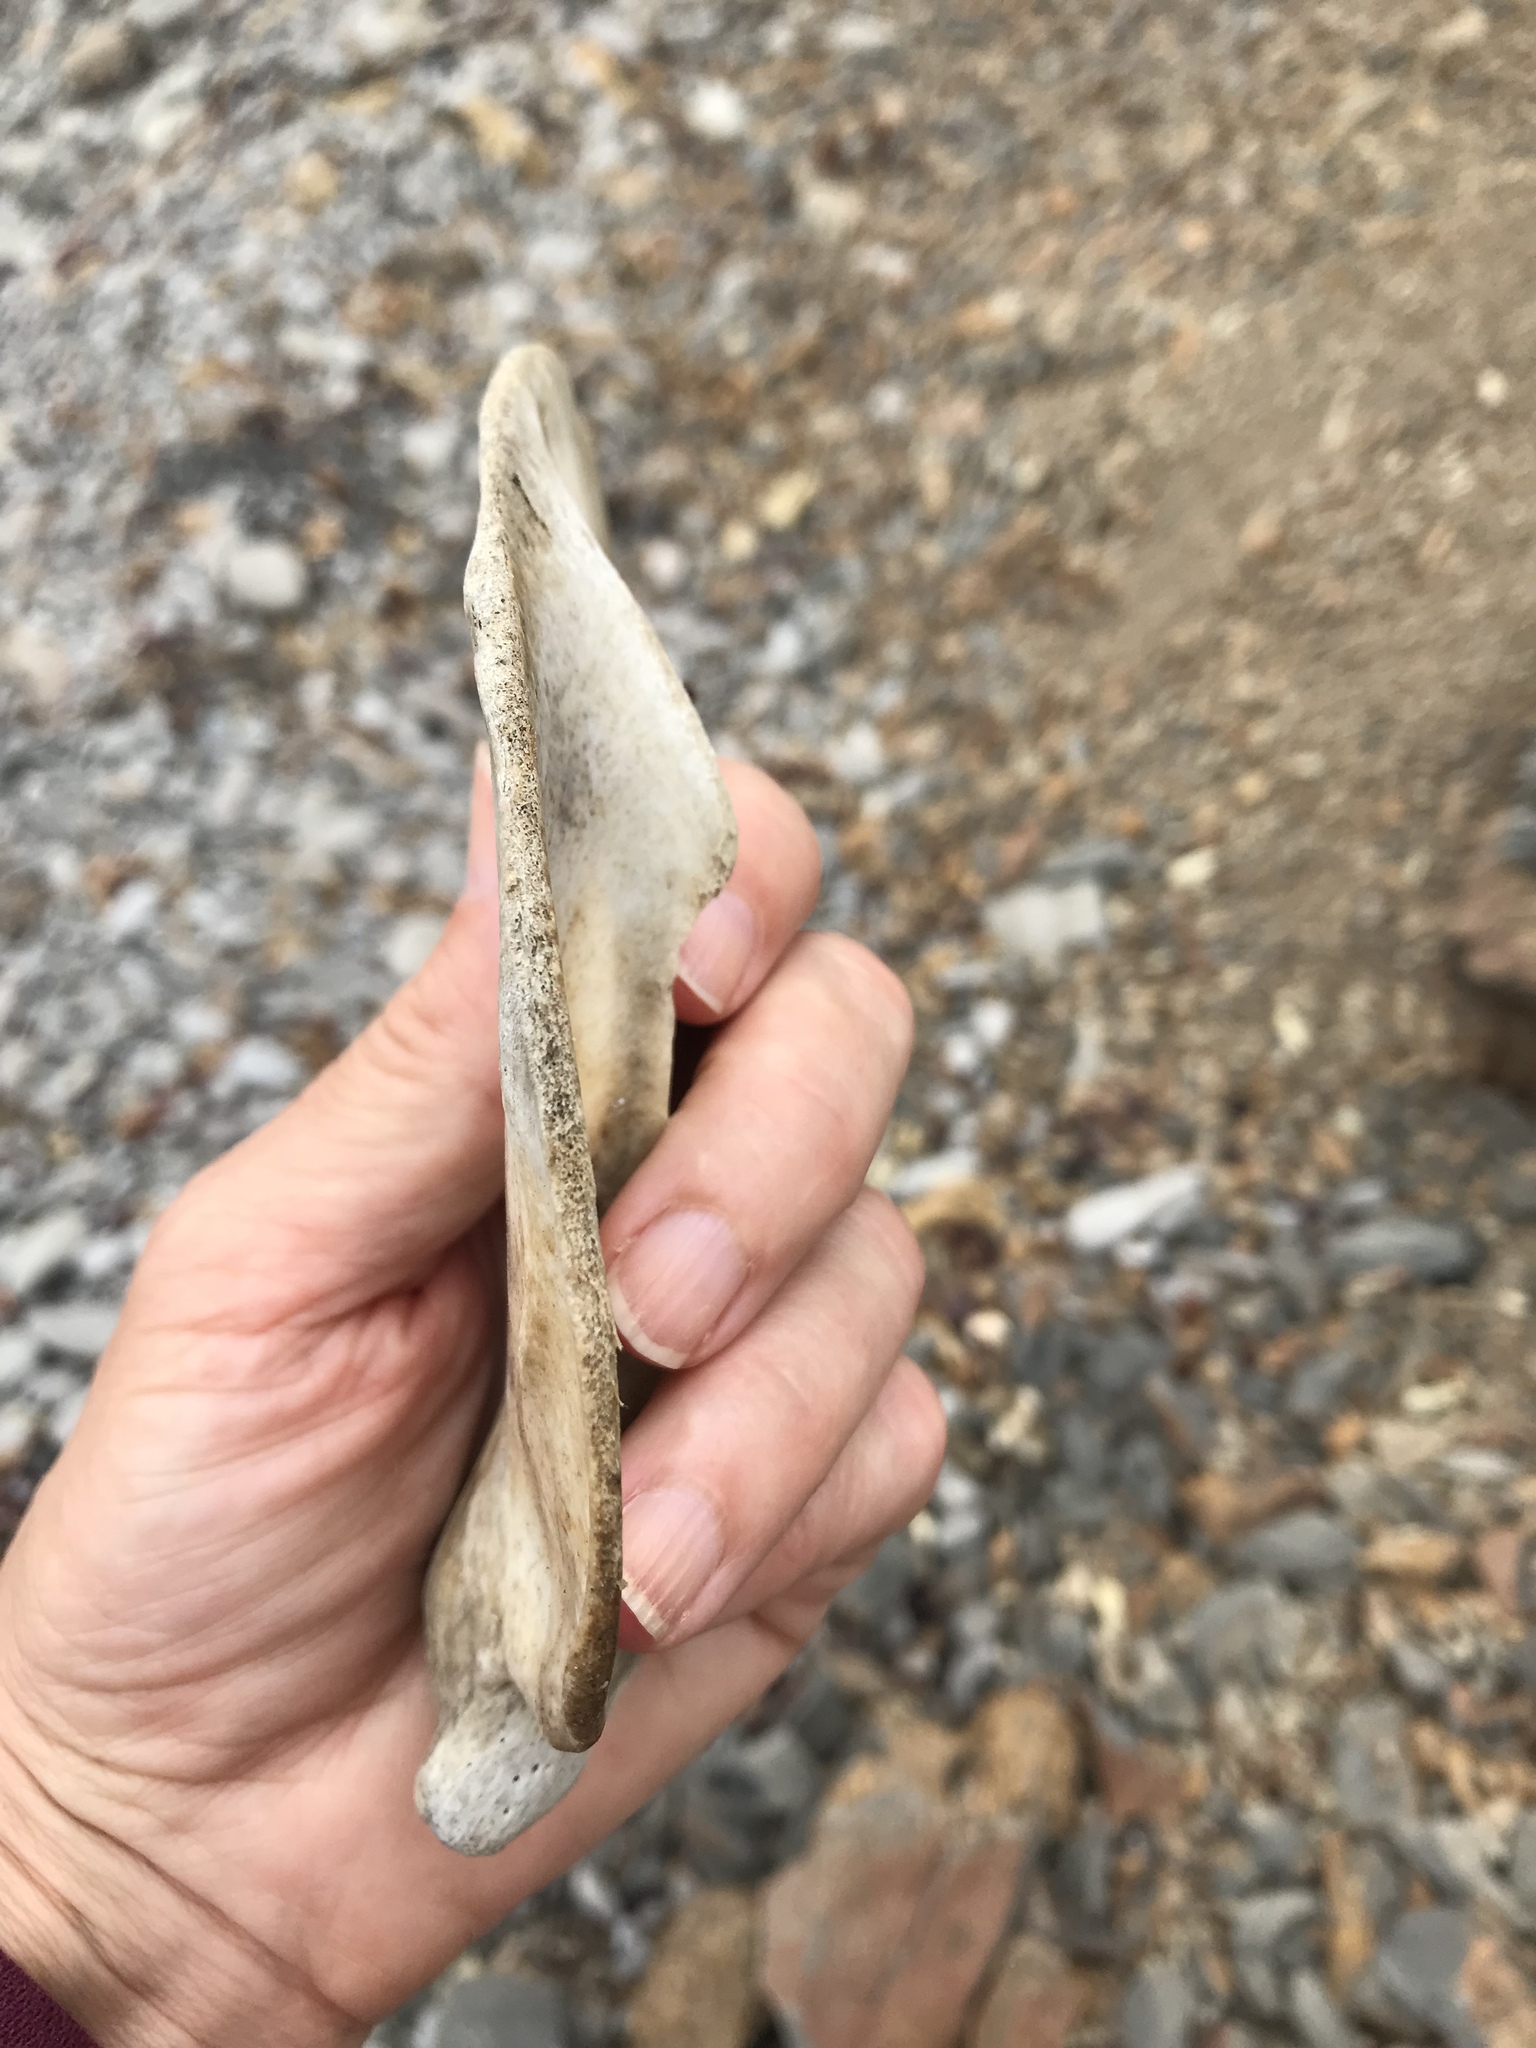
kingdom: Animalia
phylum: Chordata
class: Mammalia
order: Carnivora
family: Phocidae
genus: Phoca
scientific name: Phoca vitulina
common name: Harbor seal
